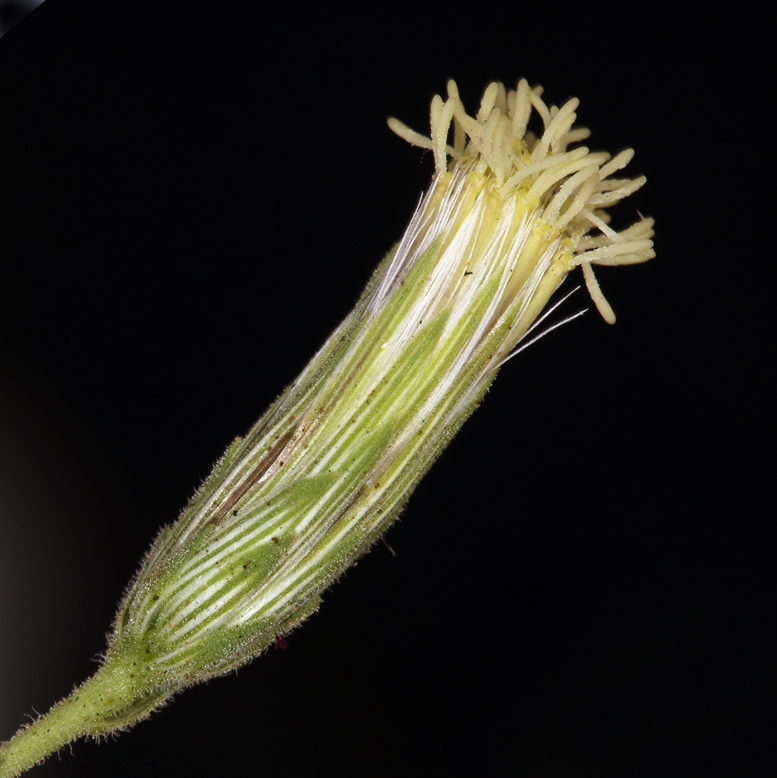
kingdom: Plantae
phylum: Tracheophyta
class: Magnoliopsida
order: Asterales
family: Asteraceae
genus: Brickellia
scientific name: Brickellia oblongifolia
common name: Mojave brickellbush
